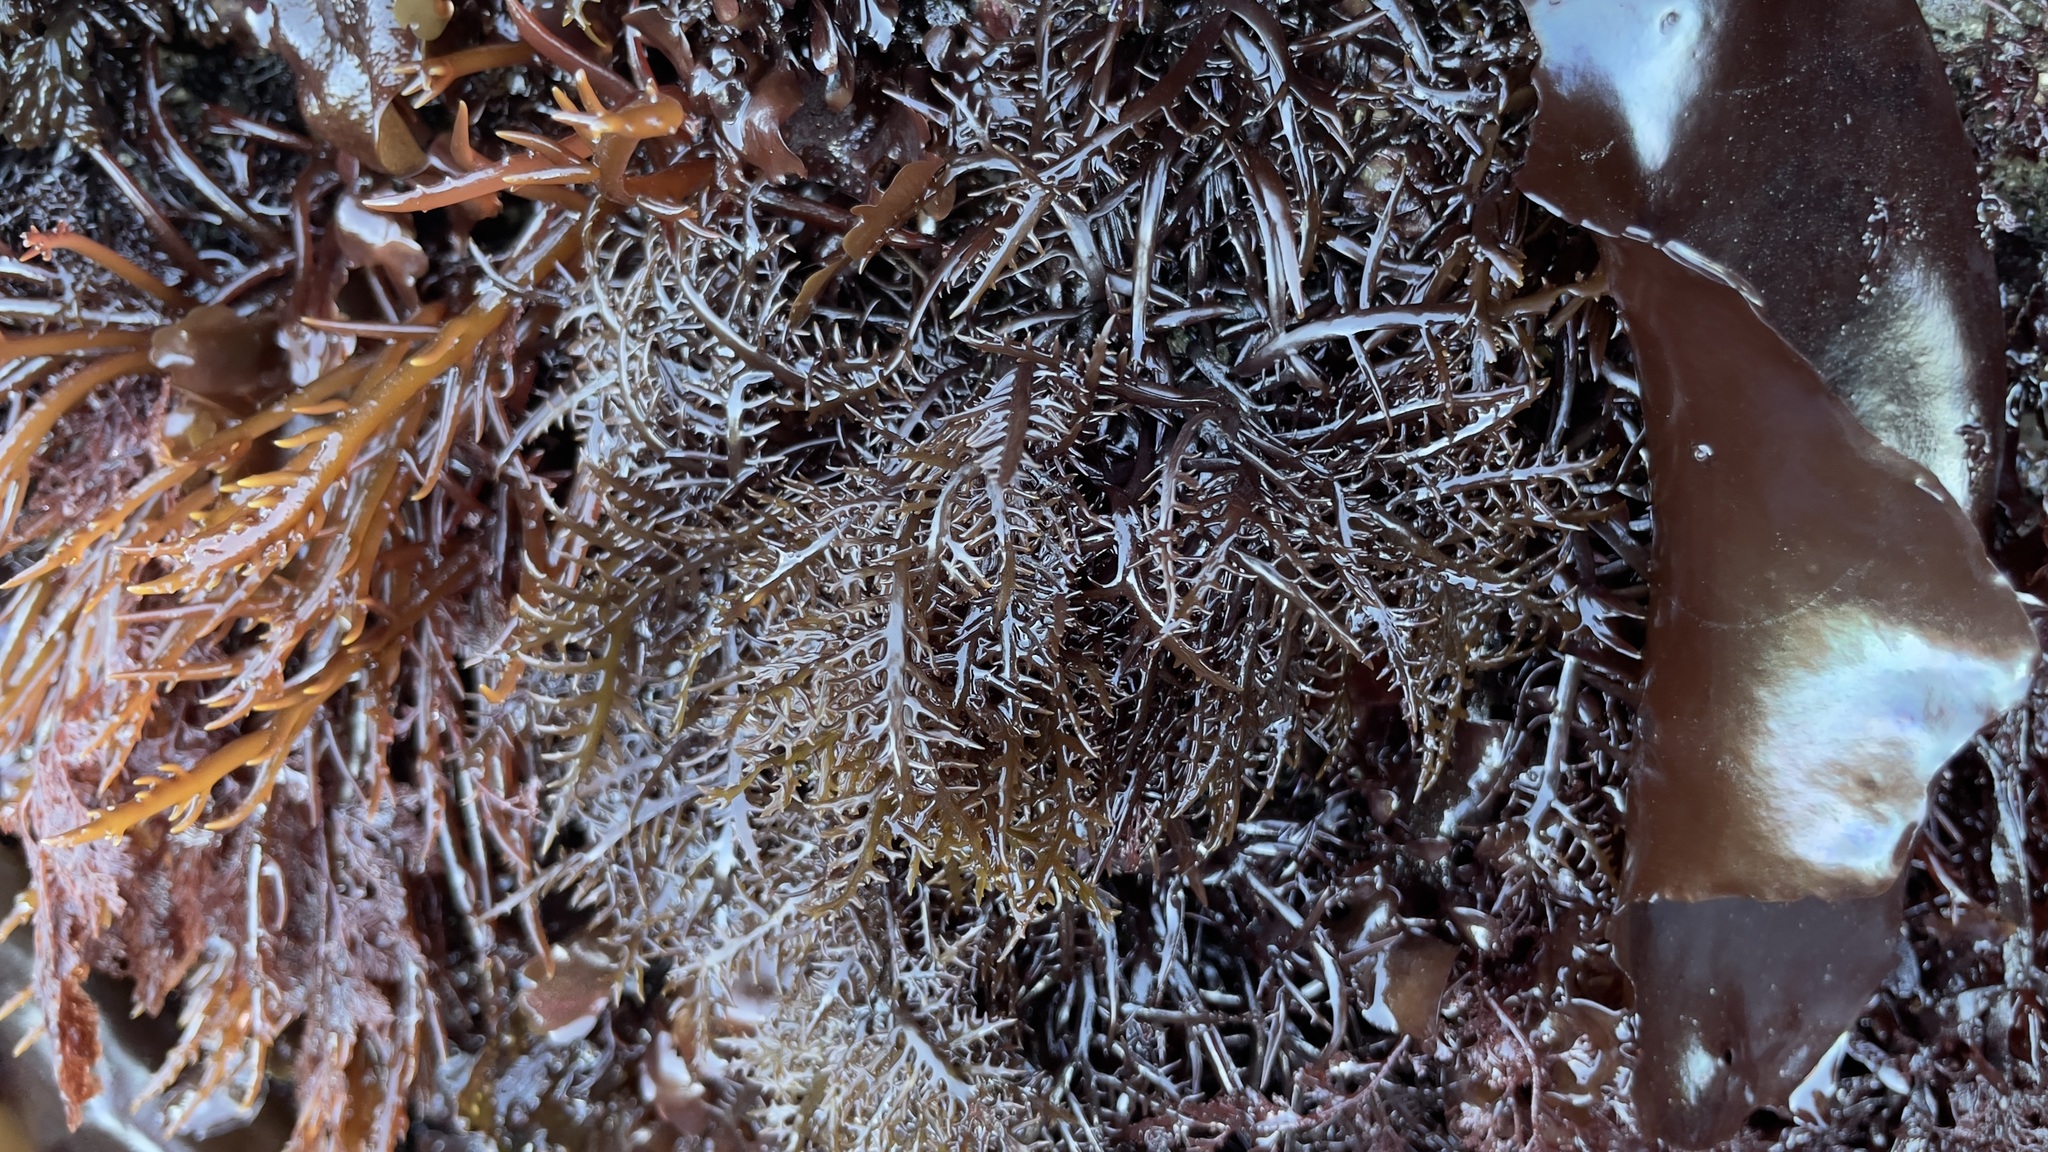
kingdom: Plantae
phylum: Rhodophyta
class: Florideophyceae
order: Gigartinales
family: Gigartinaceae
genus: Chondracanthus
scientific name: Chondracanthus canaliculatus
